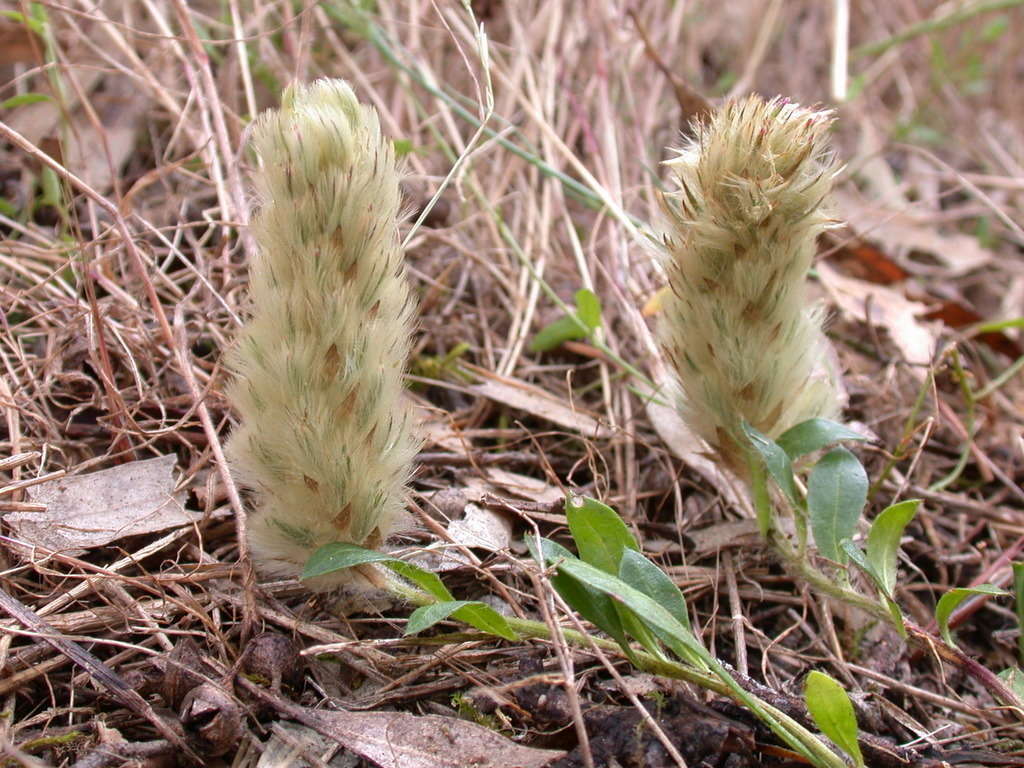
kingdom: Plantae
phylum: Tracheophyta
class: Magnoliopsida
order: Caryophyllales
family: Amaranthaceae
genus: Ptilotus
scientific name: Ptilotus spathulatus
